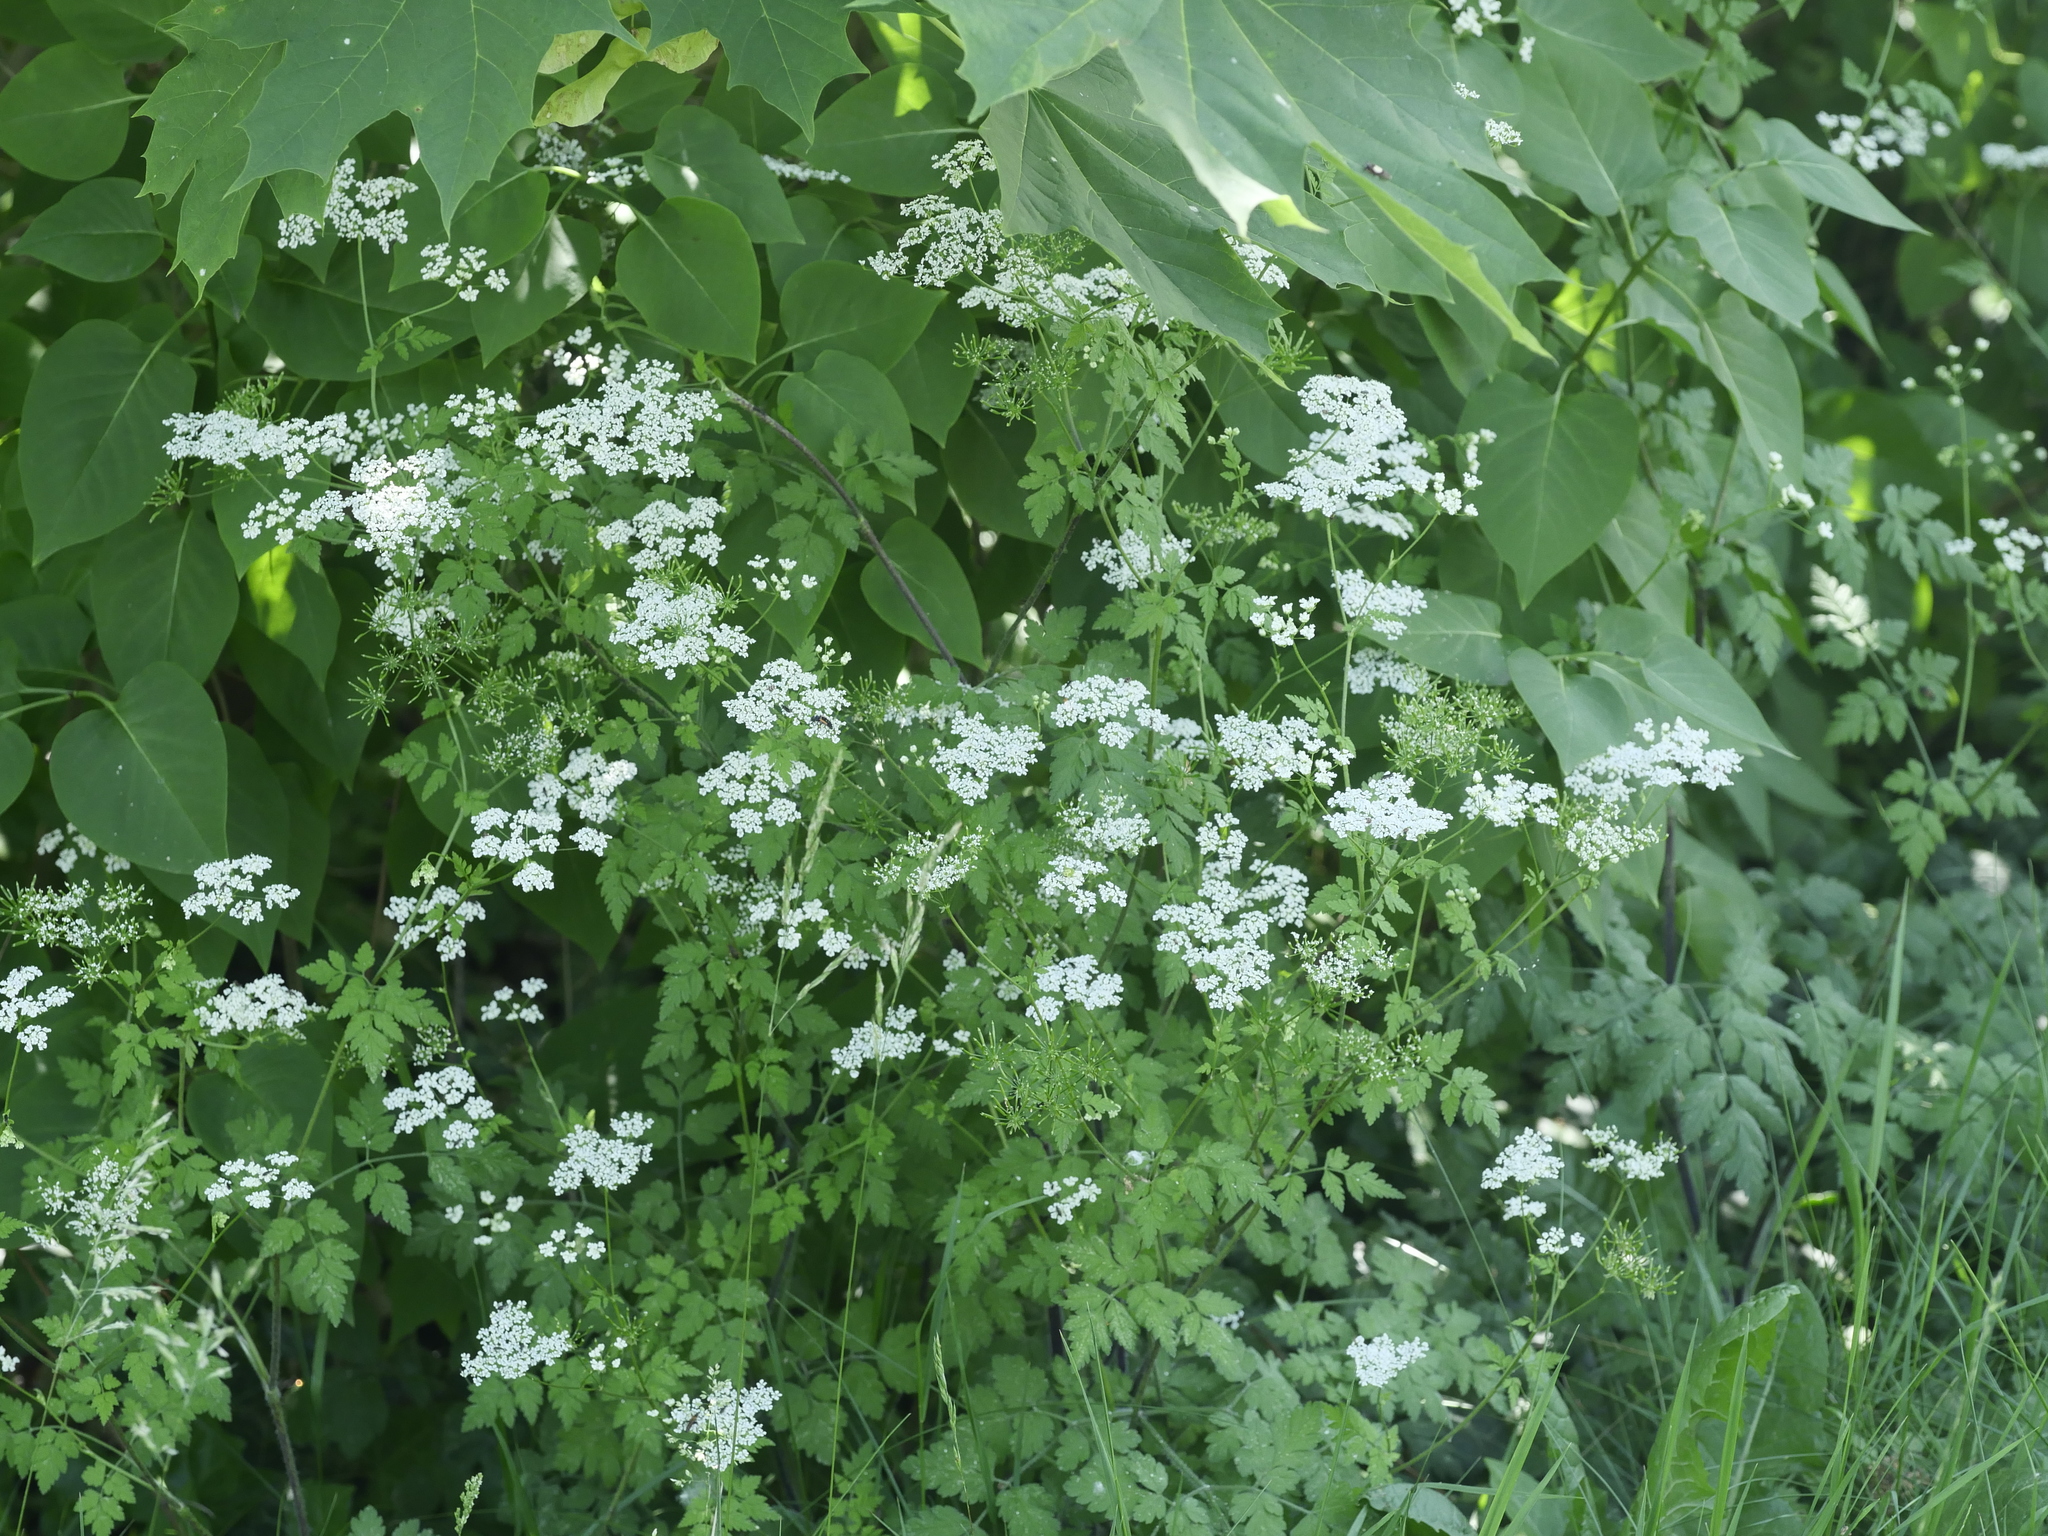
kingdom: Plantae
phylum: Tracheophyta
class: Magnoliopsida
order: Apiales
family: Apiaceae
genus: Chaerophyllum
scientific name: Chaerophyllum temulum
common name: Rough chervil
